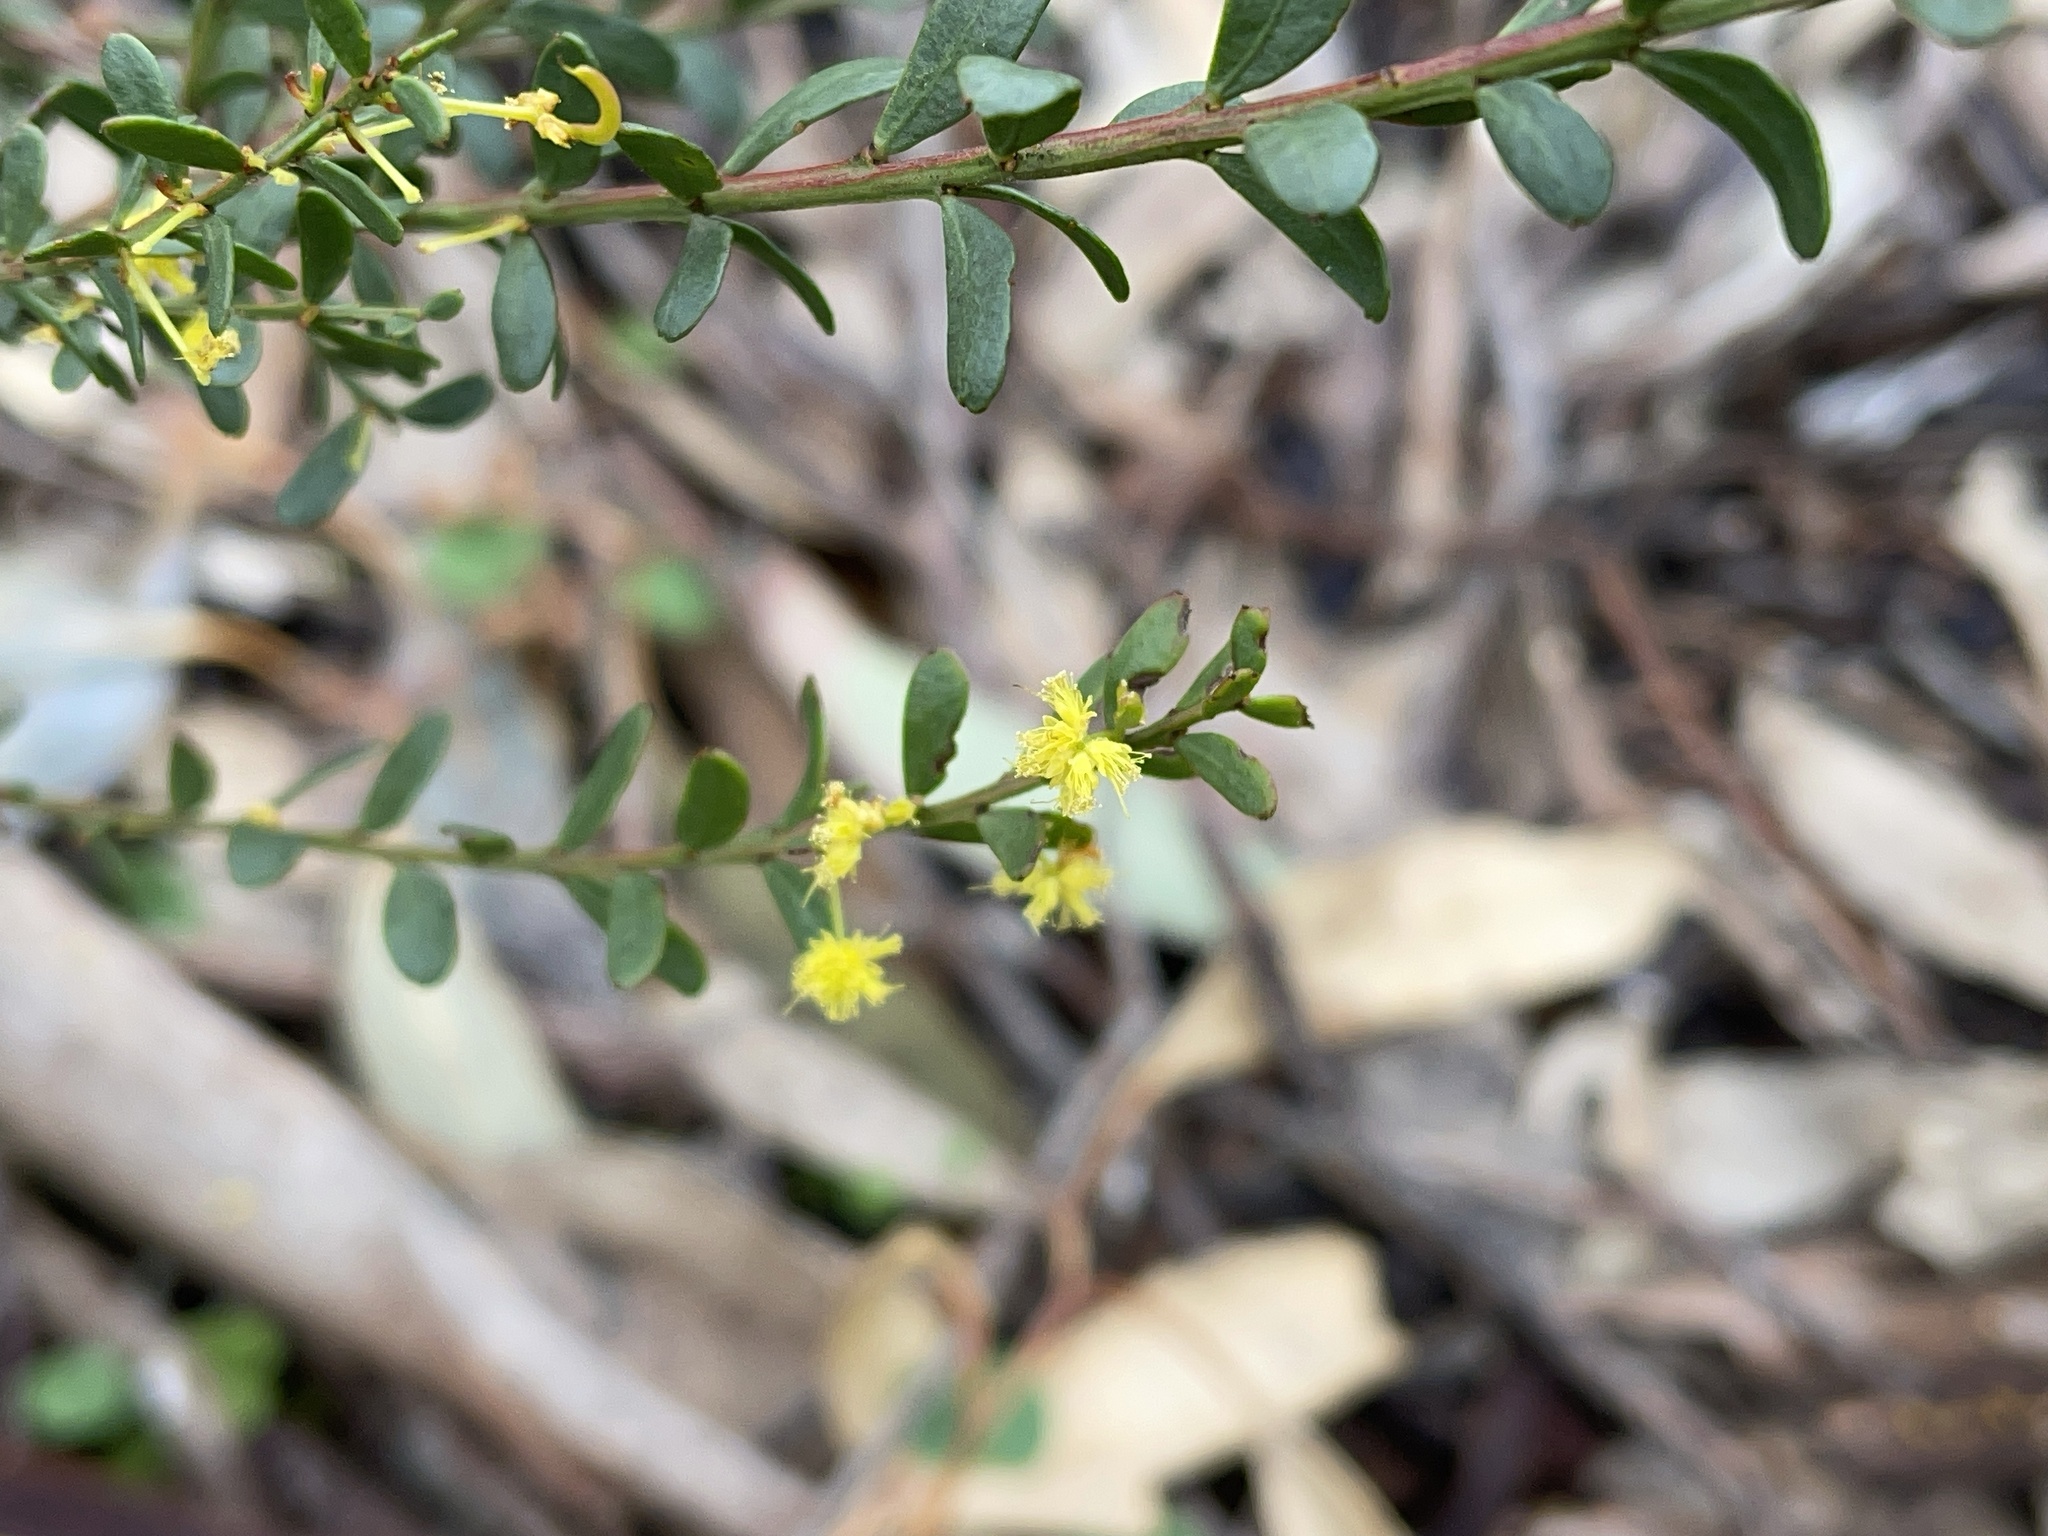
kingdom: Plantae
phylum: Tracheophyta
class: Magnoliopsida
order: Fabales
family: Fabaceae
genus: Acacia
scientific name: Acacia acinacea
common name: Gold-dust acacia
